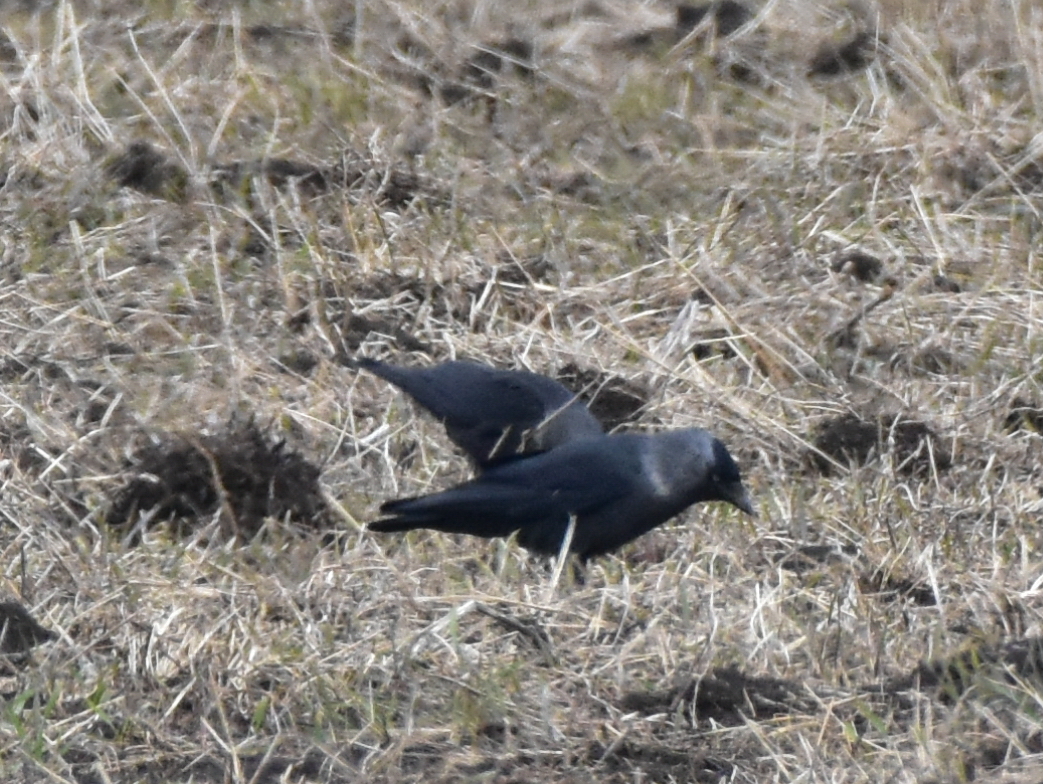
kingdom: Animalia
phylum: Chordata
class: Aves
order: Passeriformes
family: Corvidae
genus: Coloeus
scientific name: Coloeus monedula
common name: Western jackdaw
